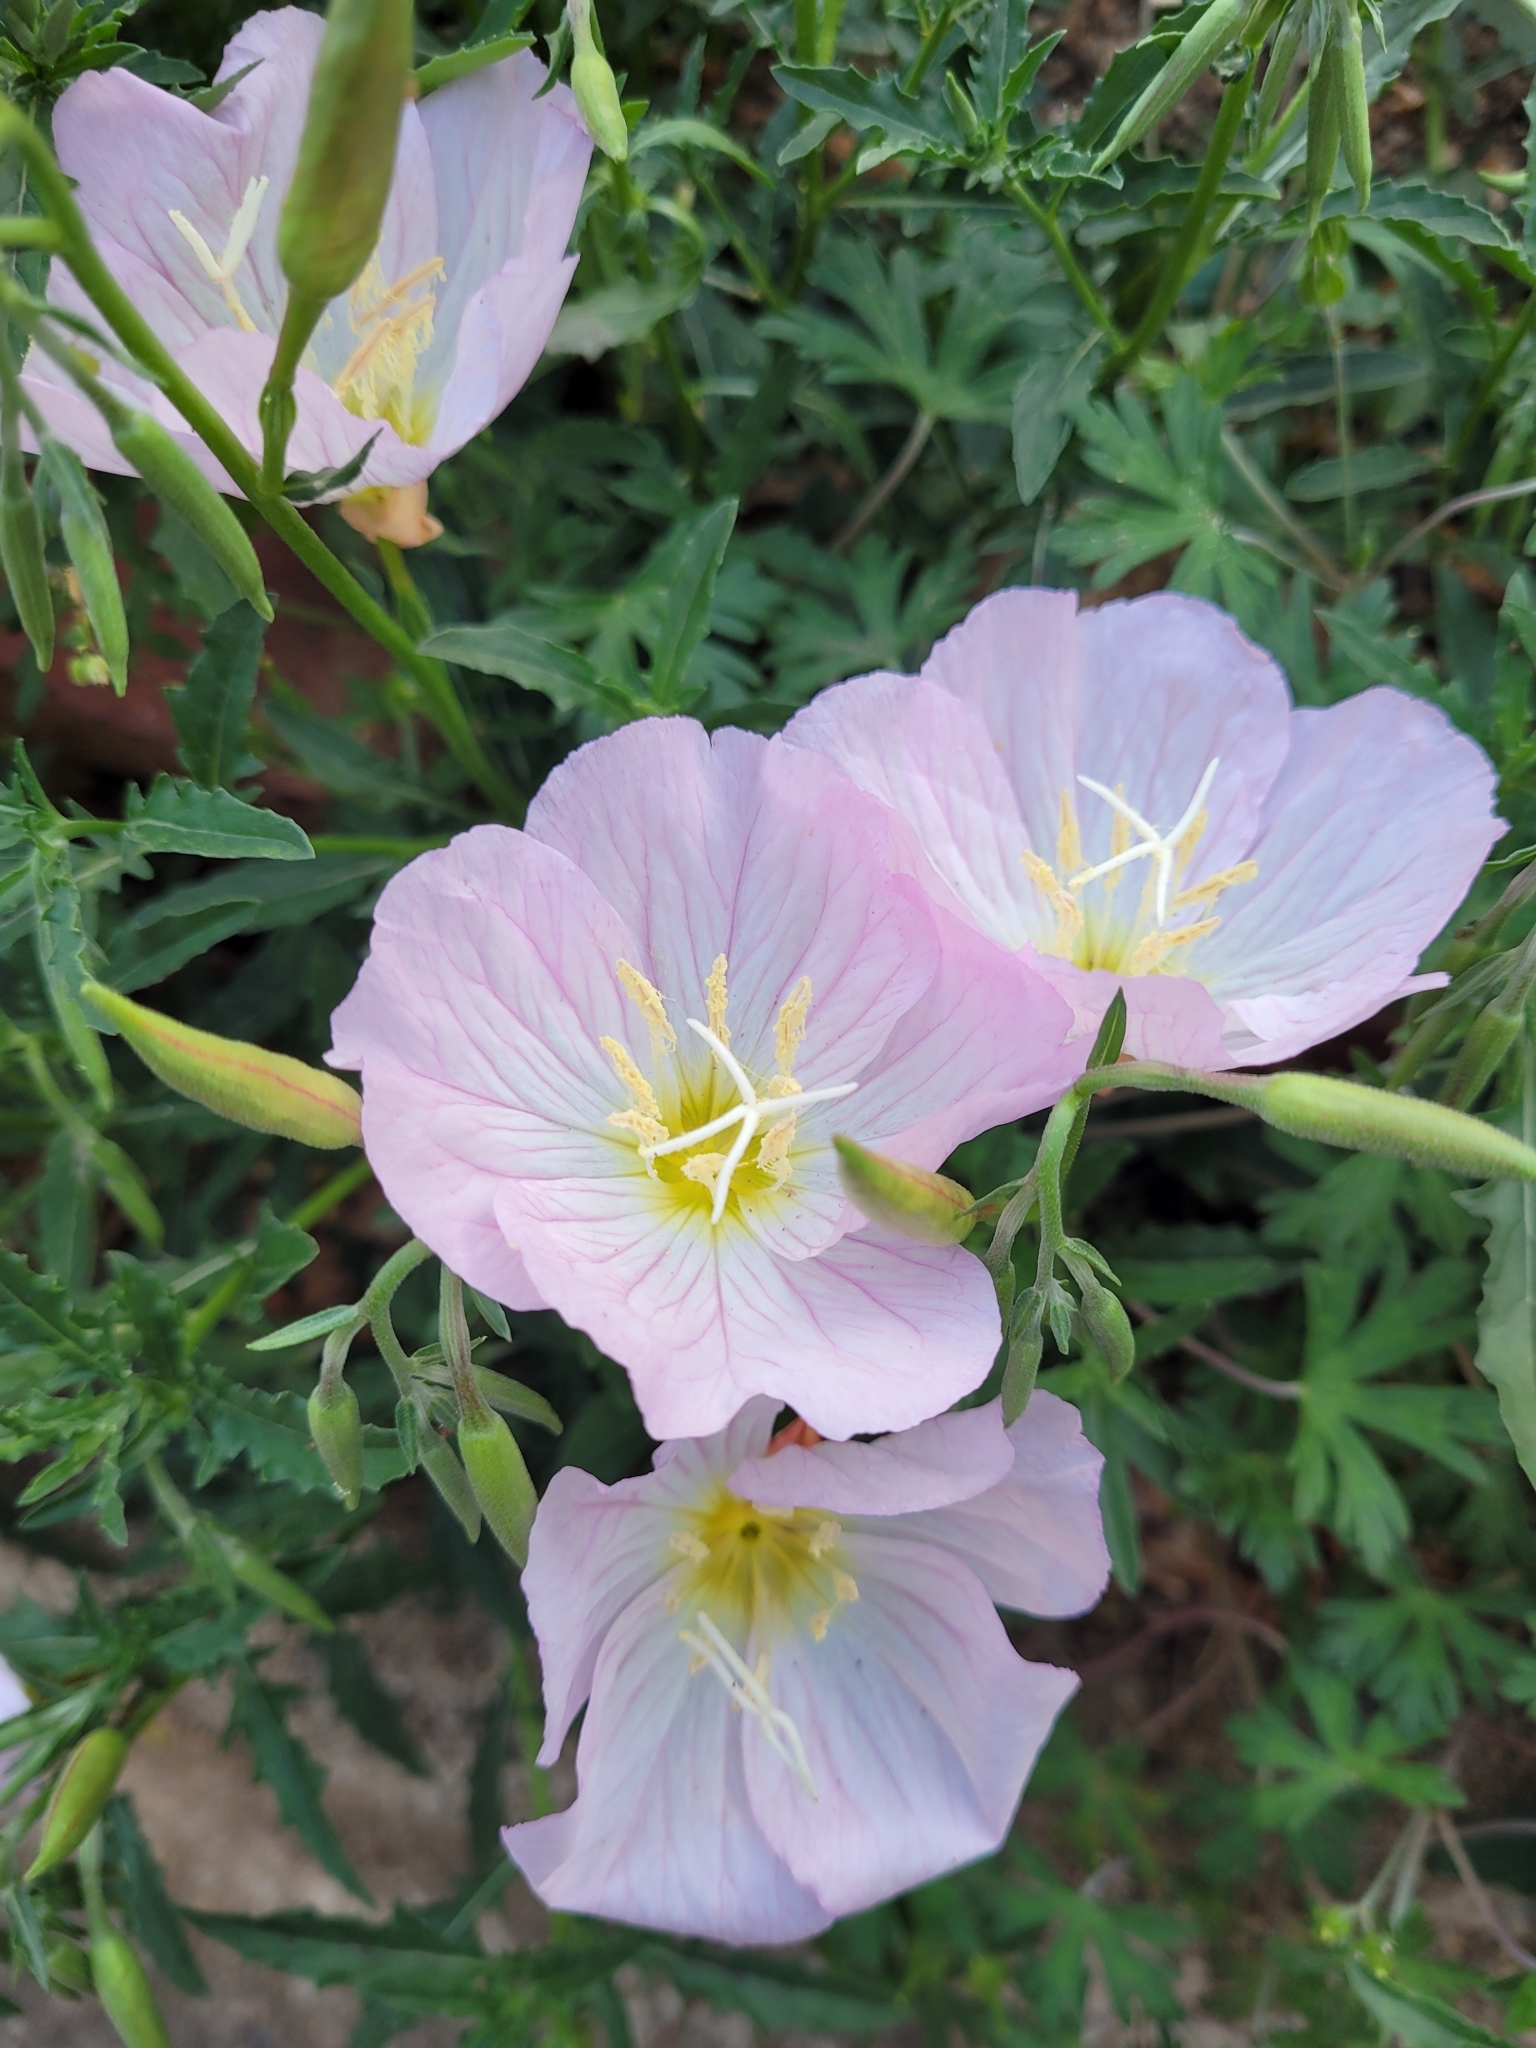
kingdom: Plantae
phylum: Tracheophyta
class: Magnoliopsida
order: Myrtales
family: Onagraceae
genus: Oenothera
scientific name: Oenothera speciosa
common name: White evening-primrose
